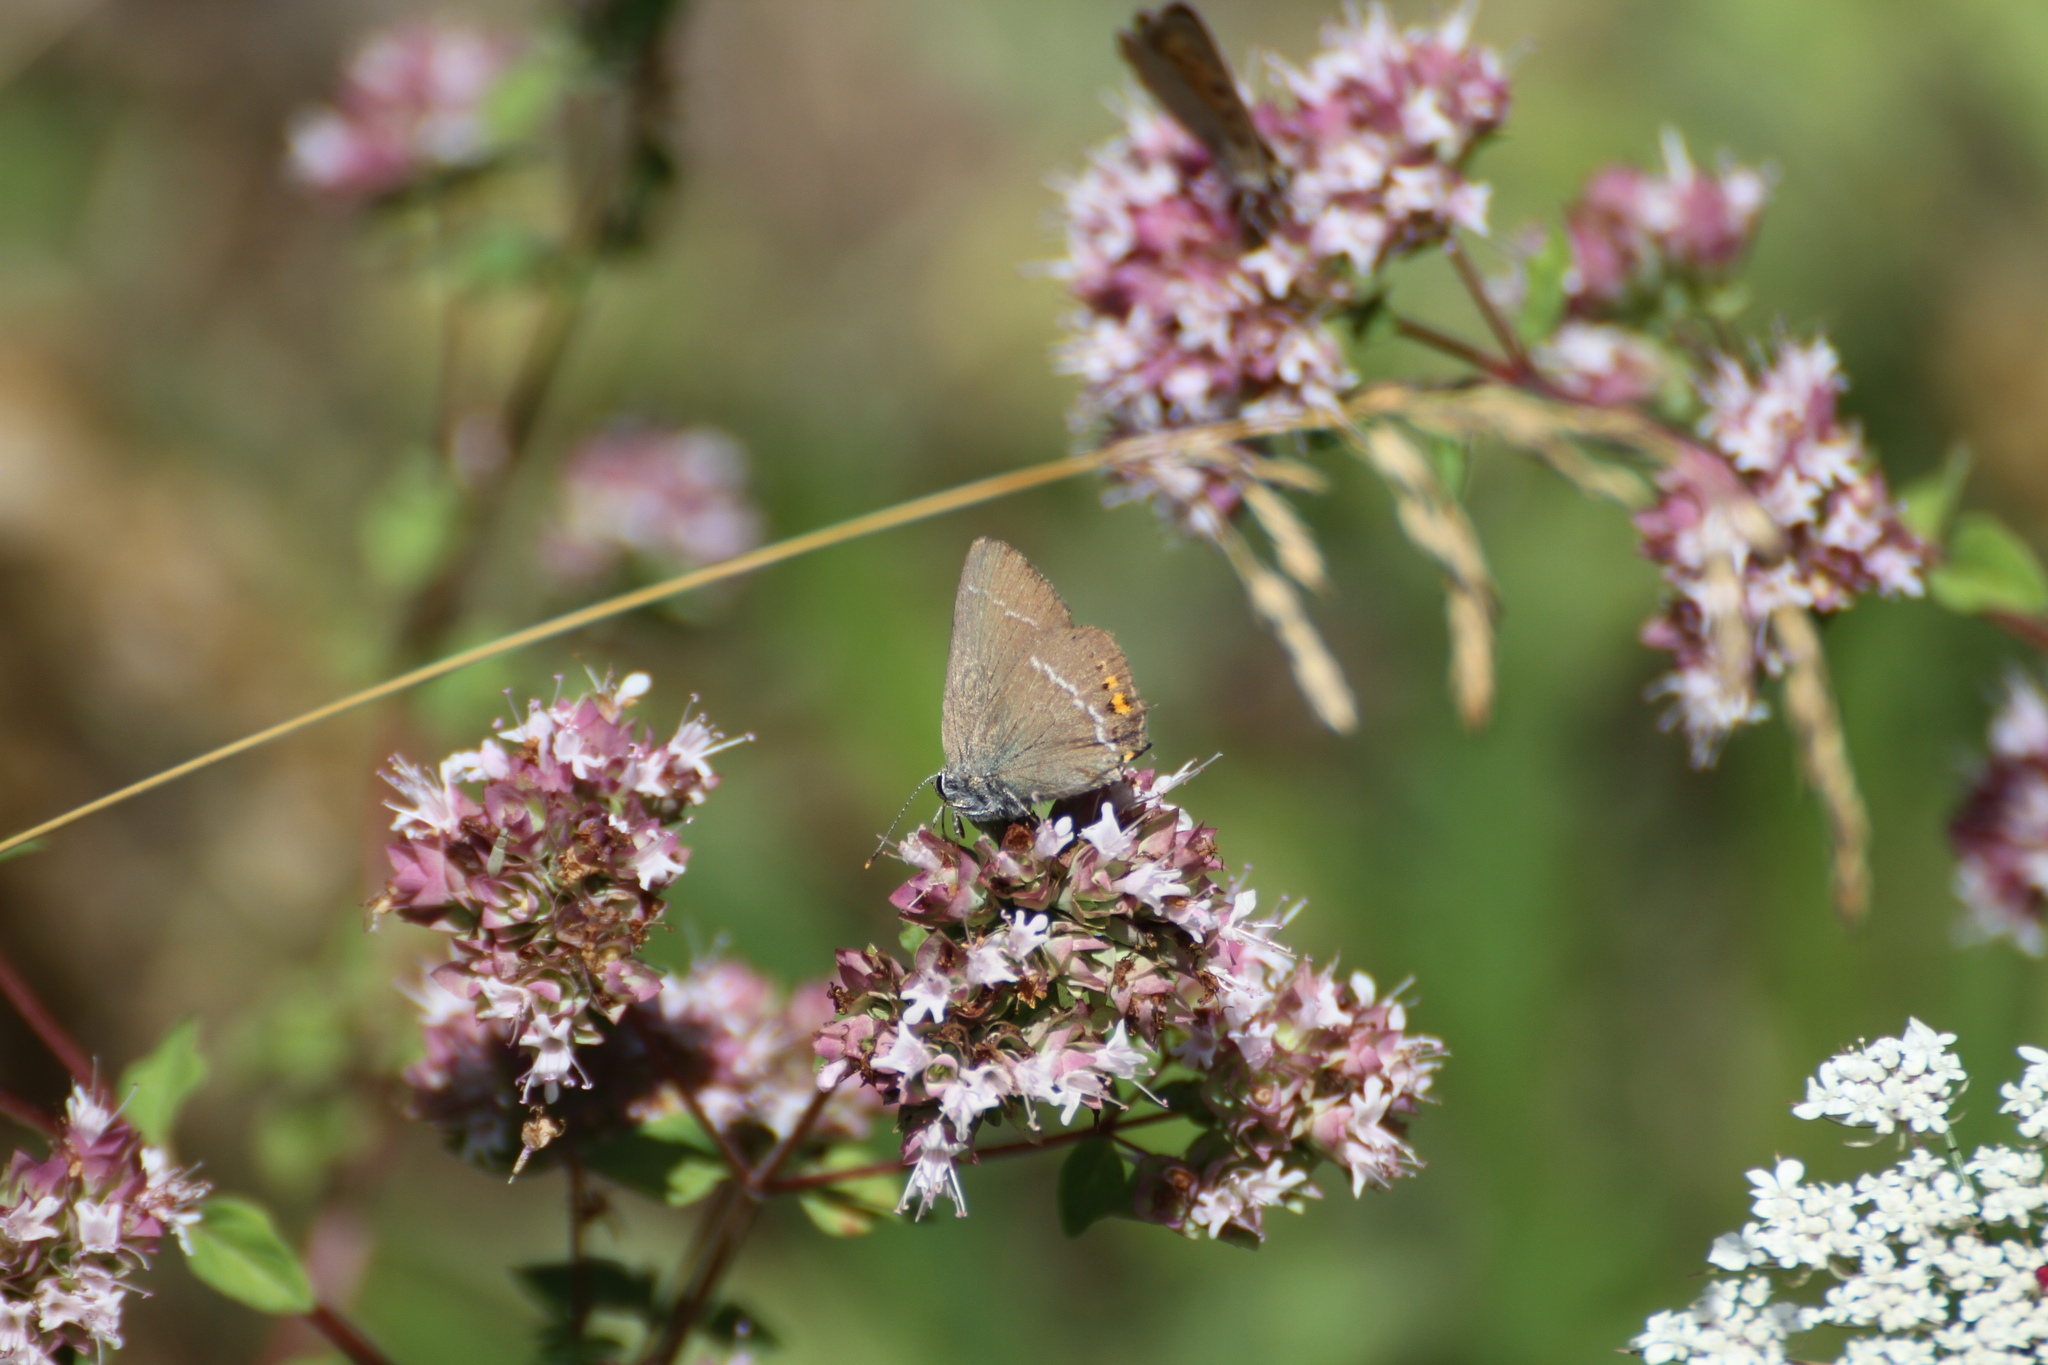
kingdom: Animalia
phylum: Arthropoda
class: Insecta
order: Lepidoptera
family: Lycaenidae
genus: Tuttiola
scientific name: Tuttiola spini
